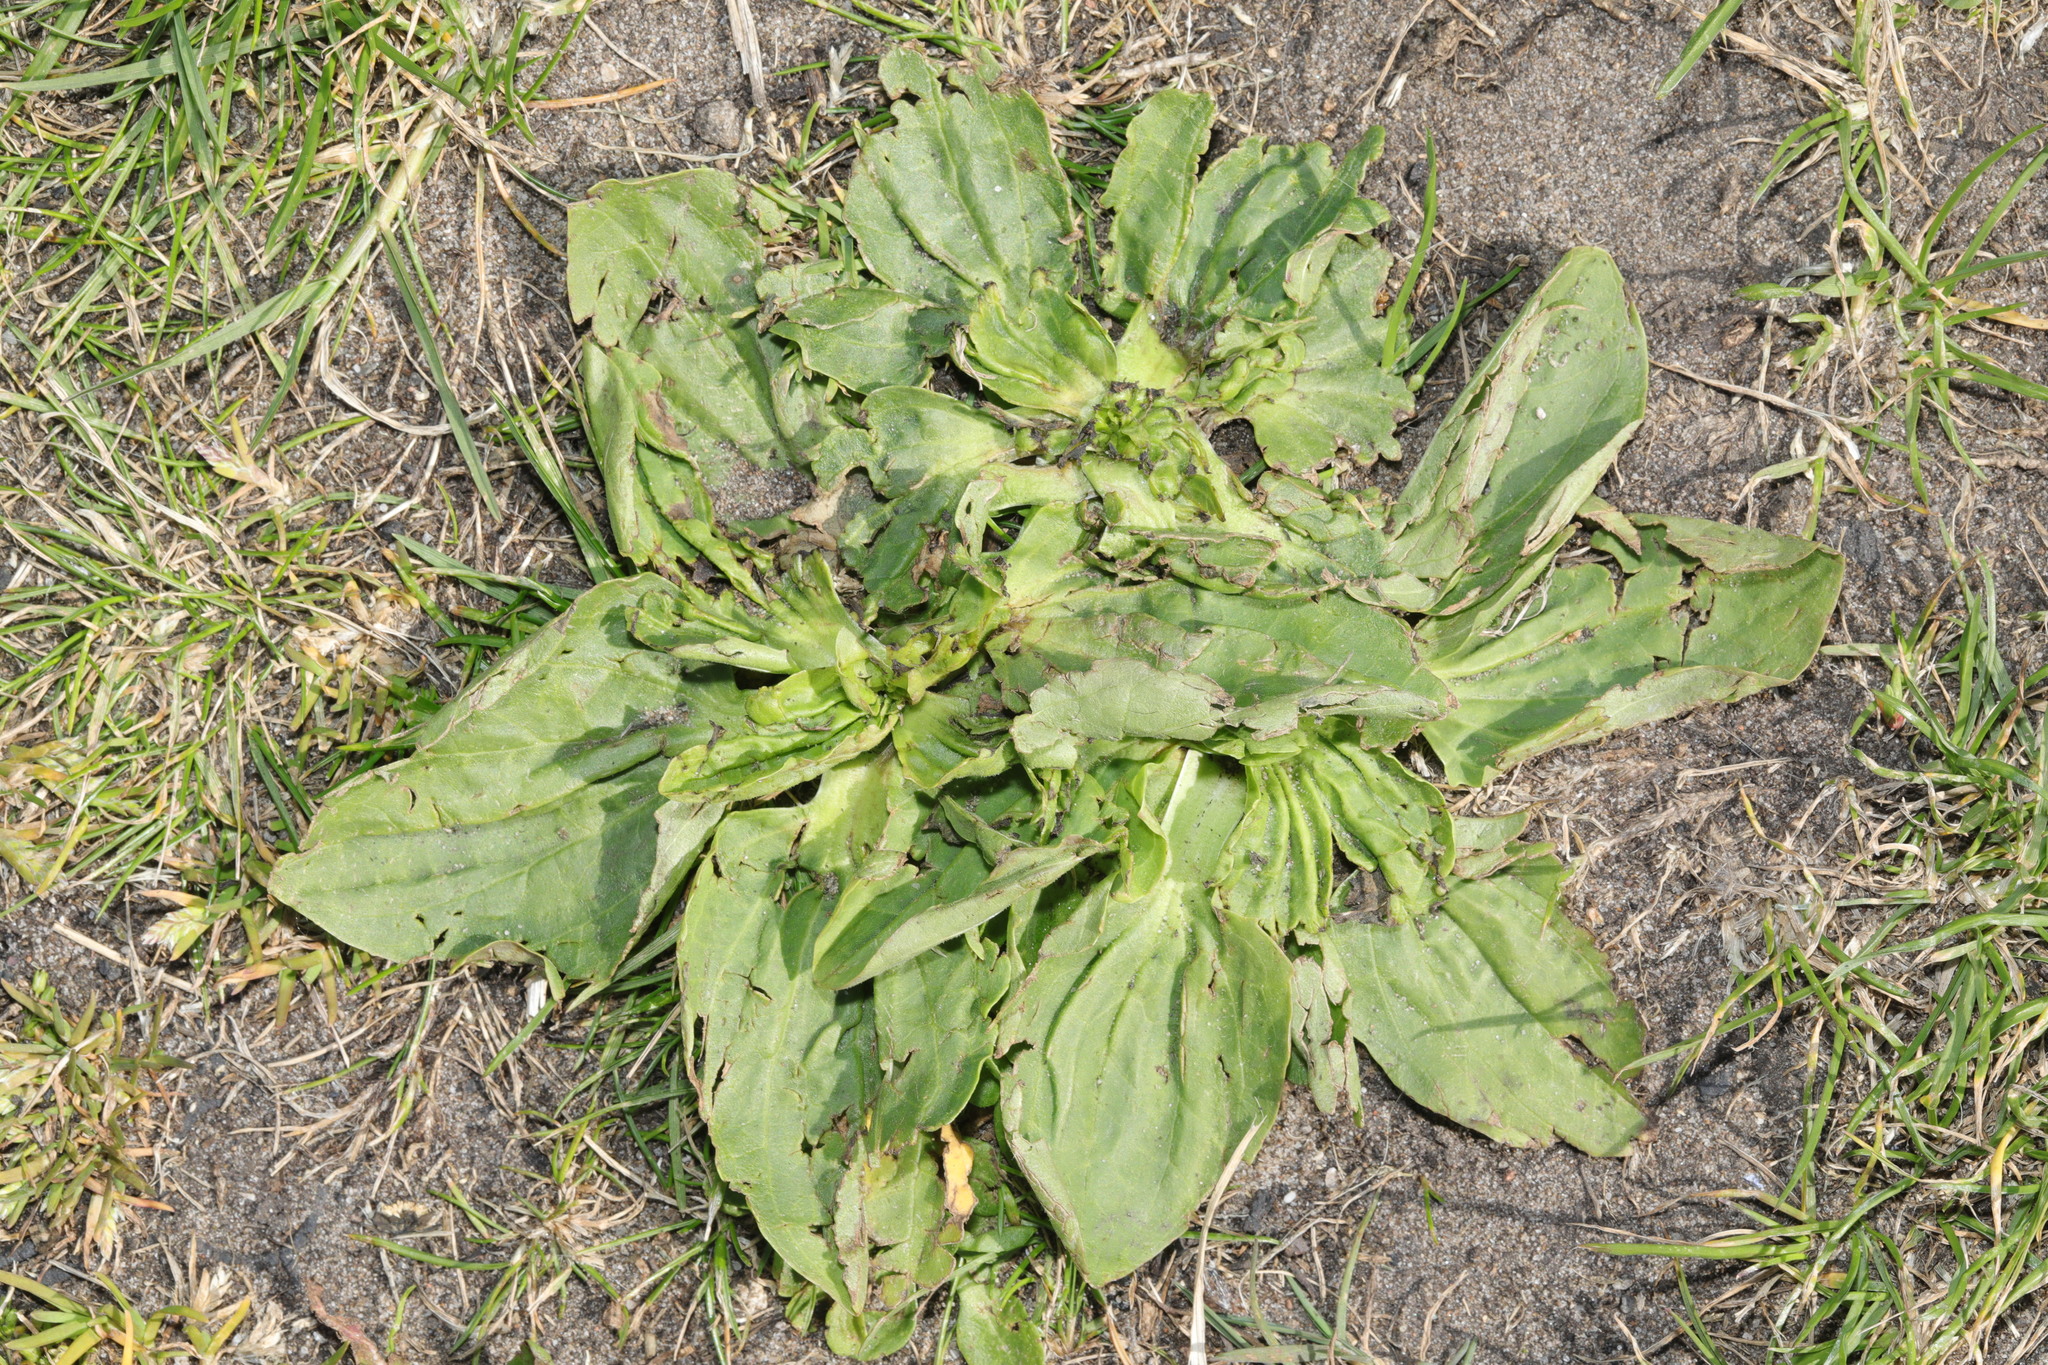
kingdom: Plantae
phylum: Tracheophyta
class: Magnoliopsida
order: Lamiales
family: Plantaginaceae
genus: Plantago
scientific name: Plantago major
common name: Common plantain
